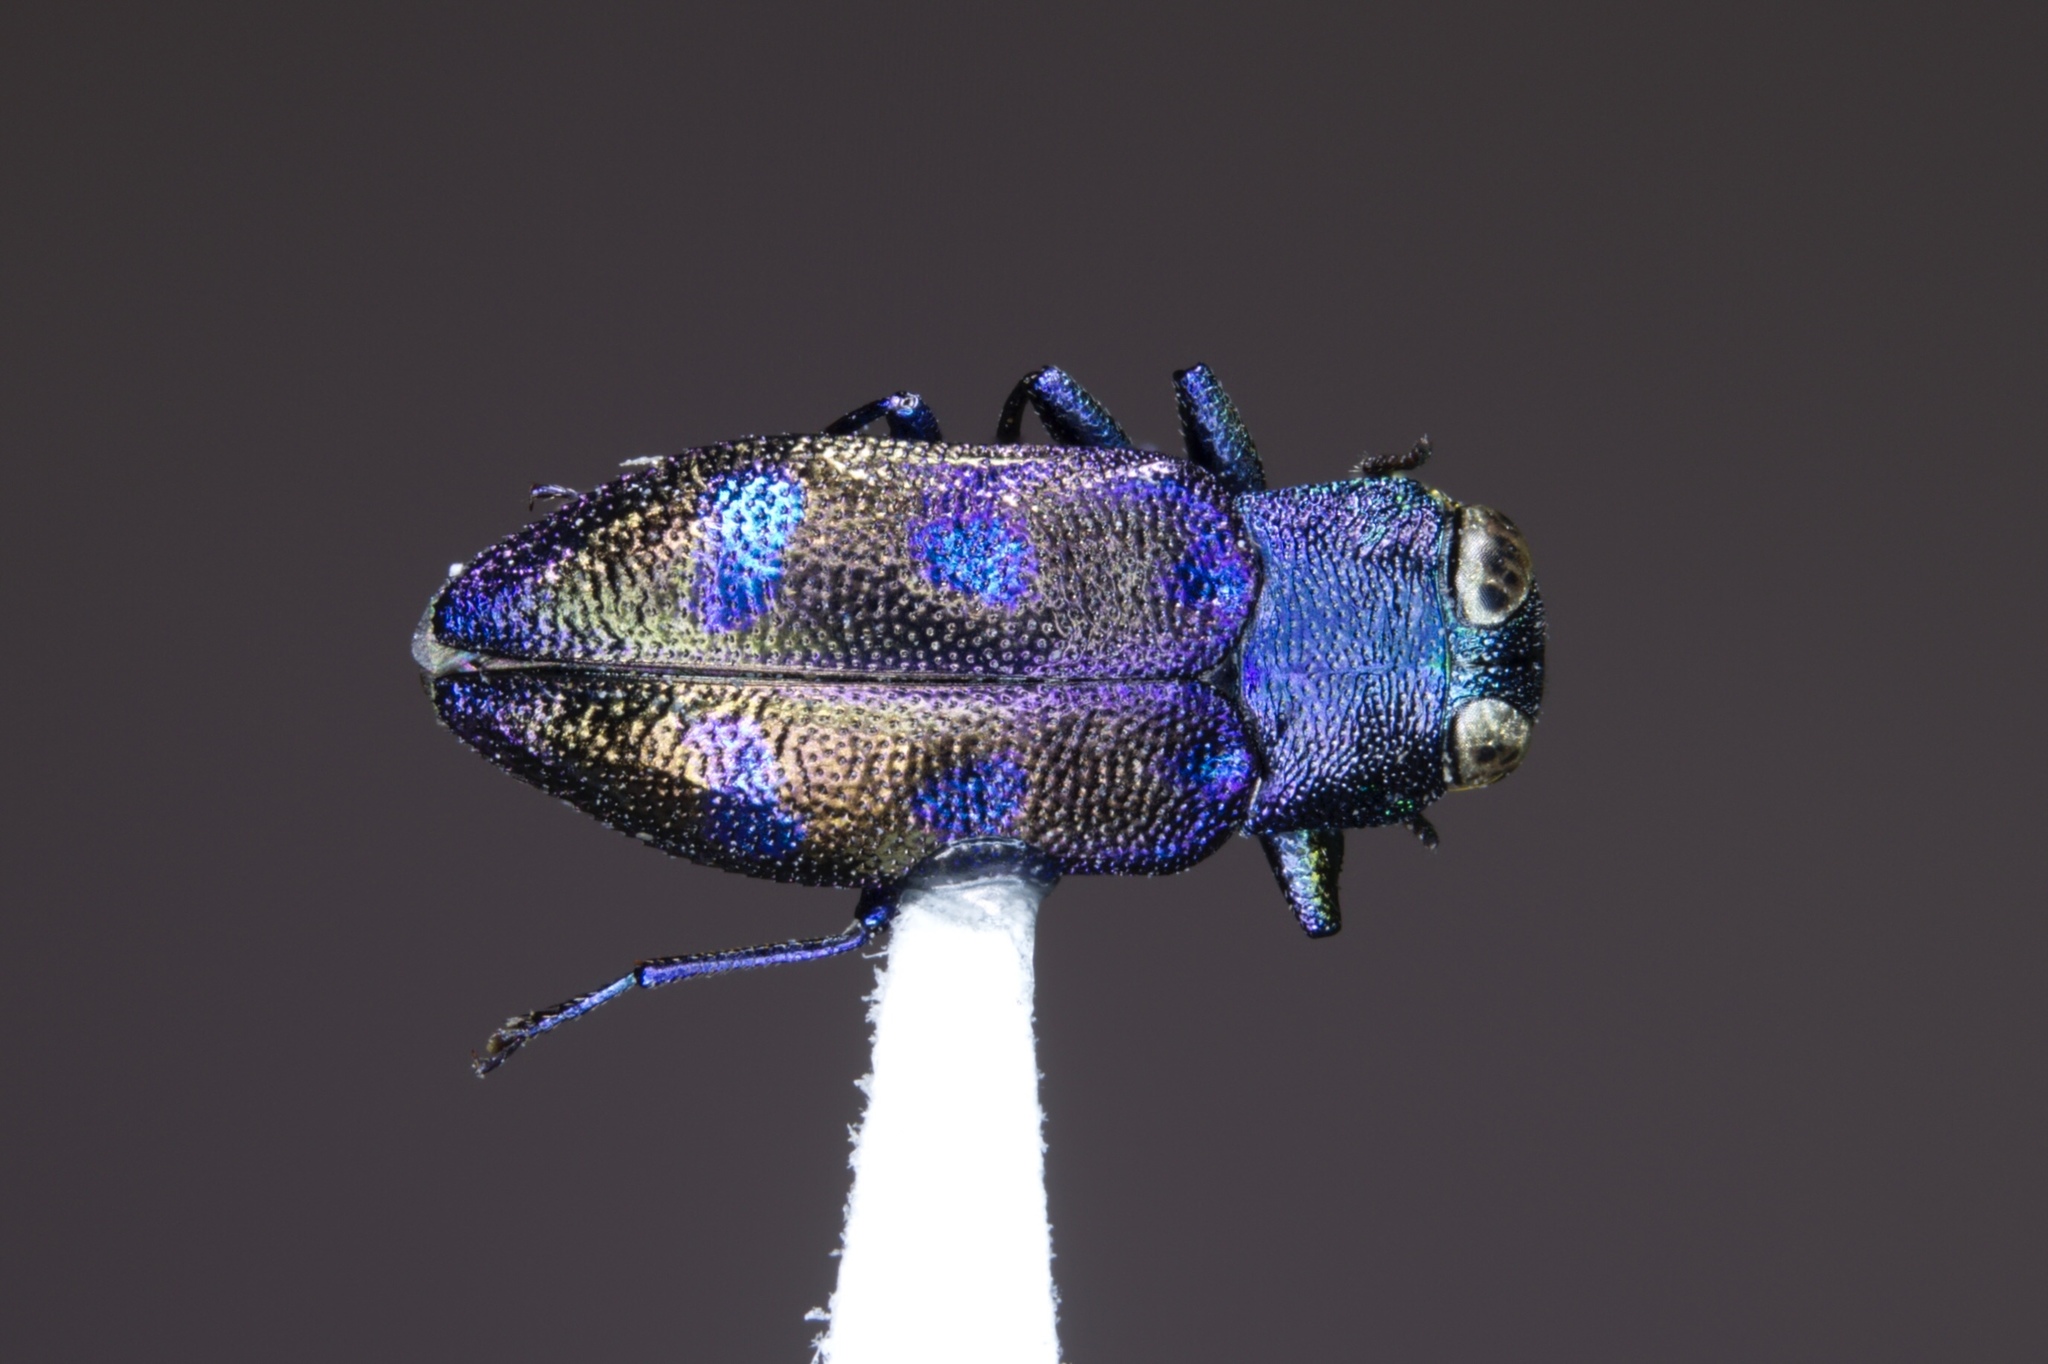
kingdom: Animalia
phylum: Arthropoda
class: Insecta
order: Coleoptera
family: Buprestidae
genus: Chrysobothris
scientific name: Chrysobothris chlorocephala
